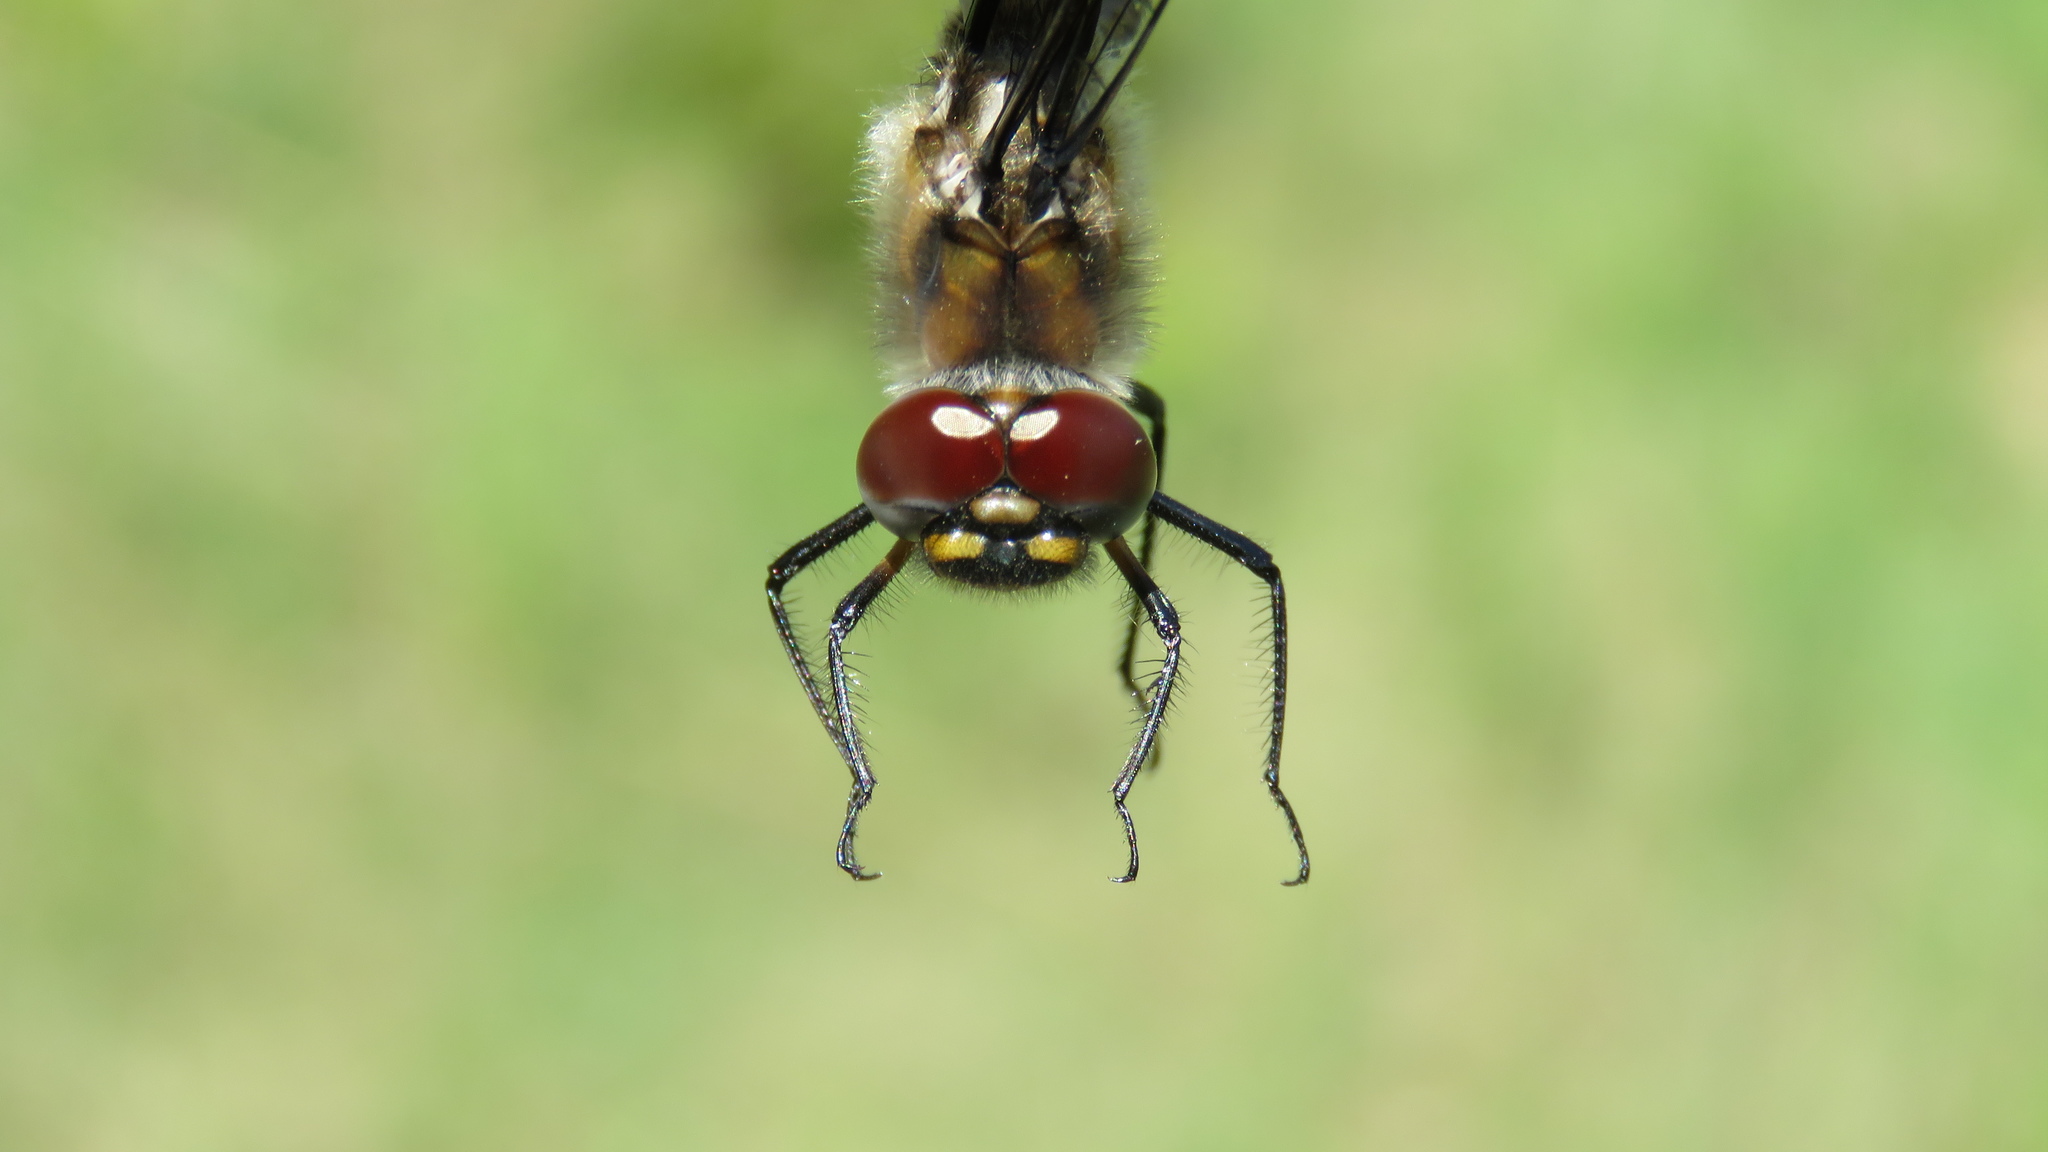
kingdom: Animalia
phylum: Arthropoda
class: Insecta
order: Odonata
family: Corduliidae
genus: Epitheca
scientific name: Epitheca spinigera
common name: Spiny baskettail
